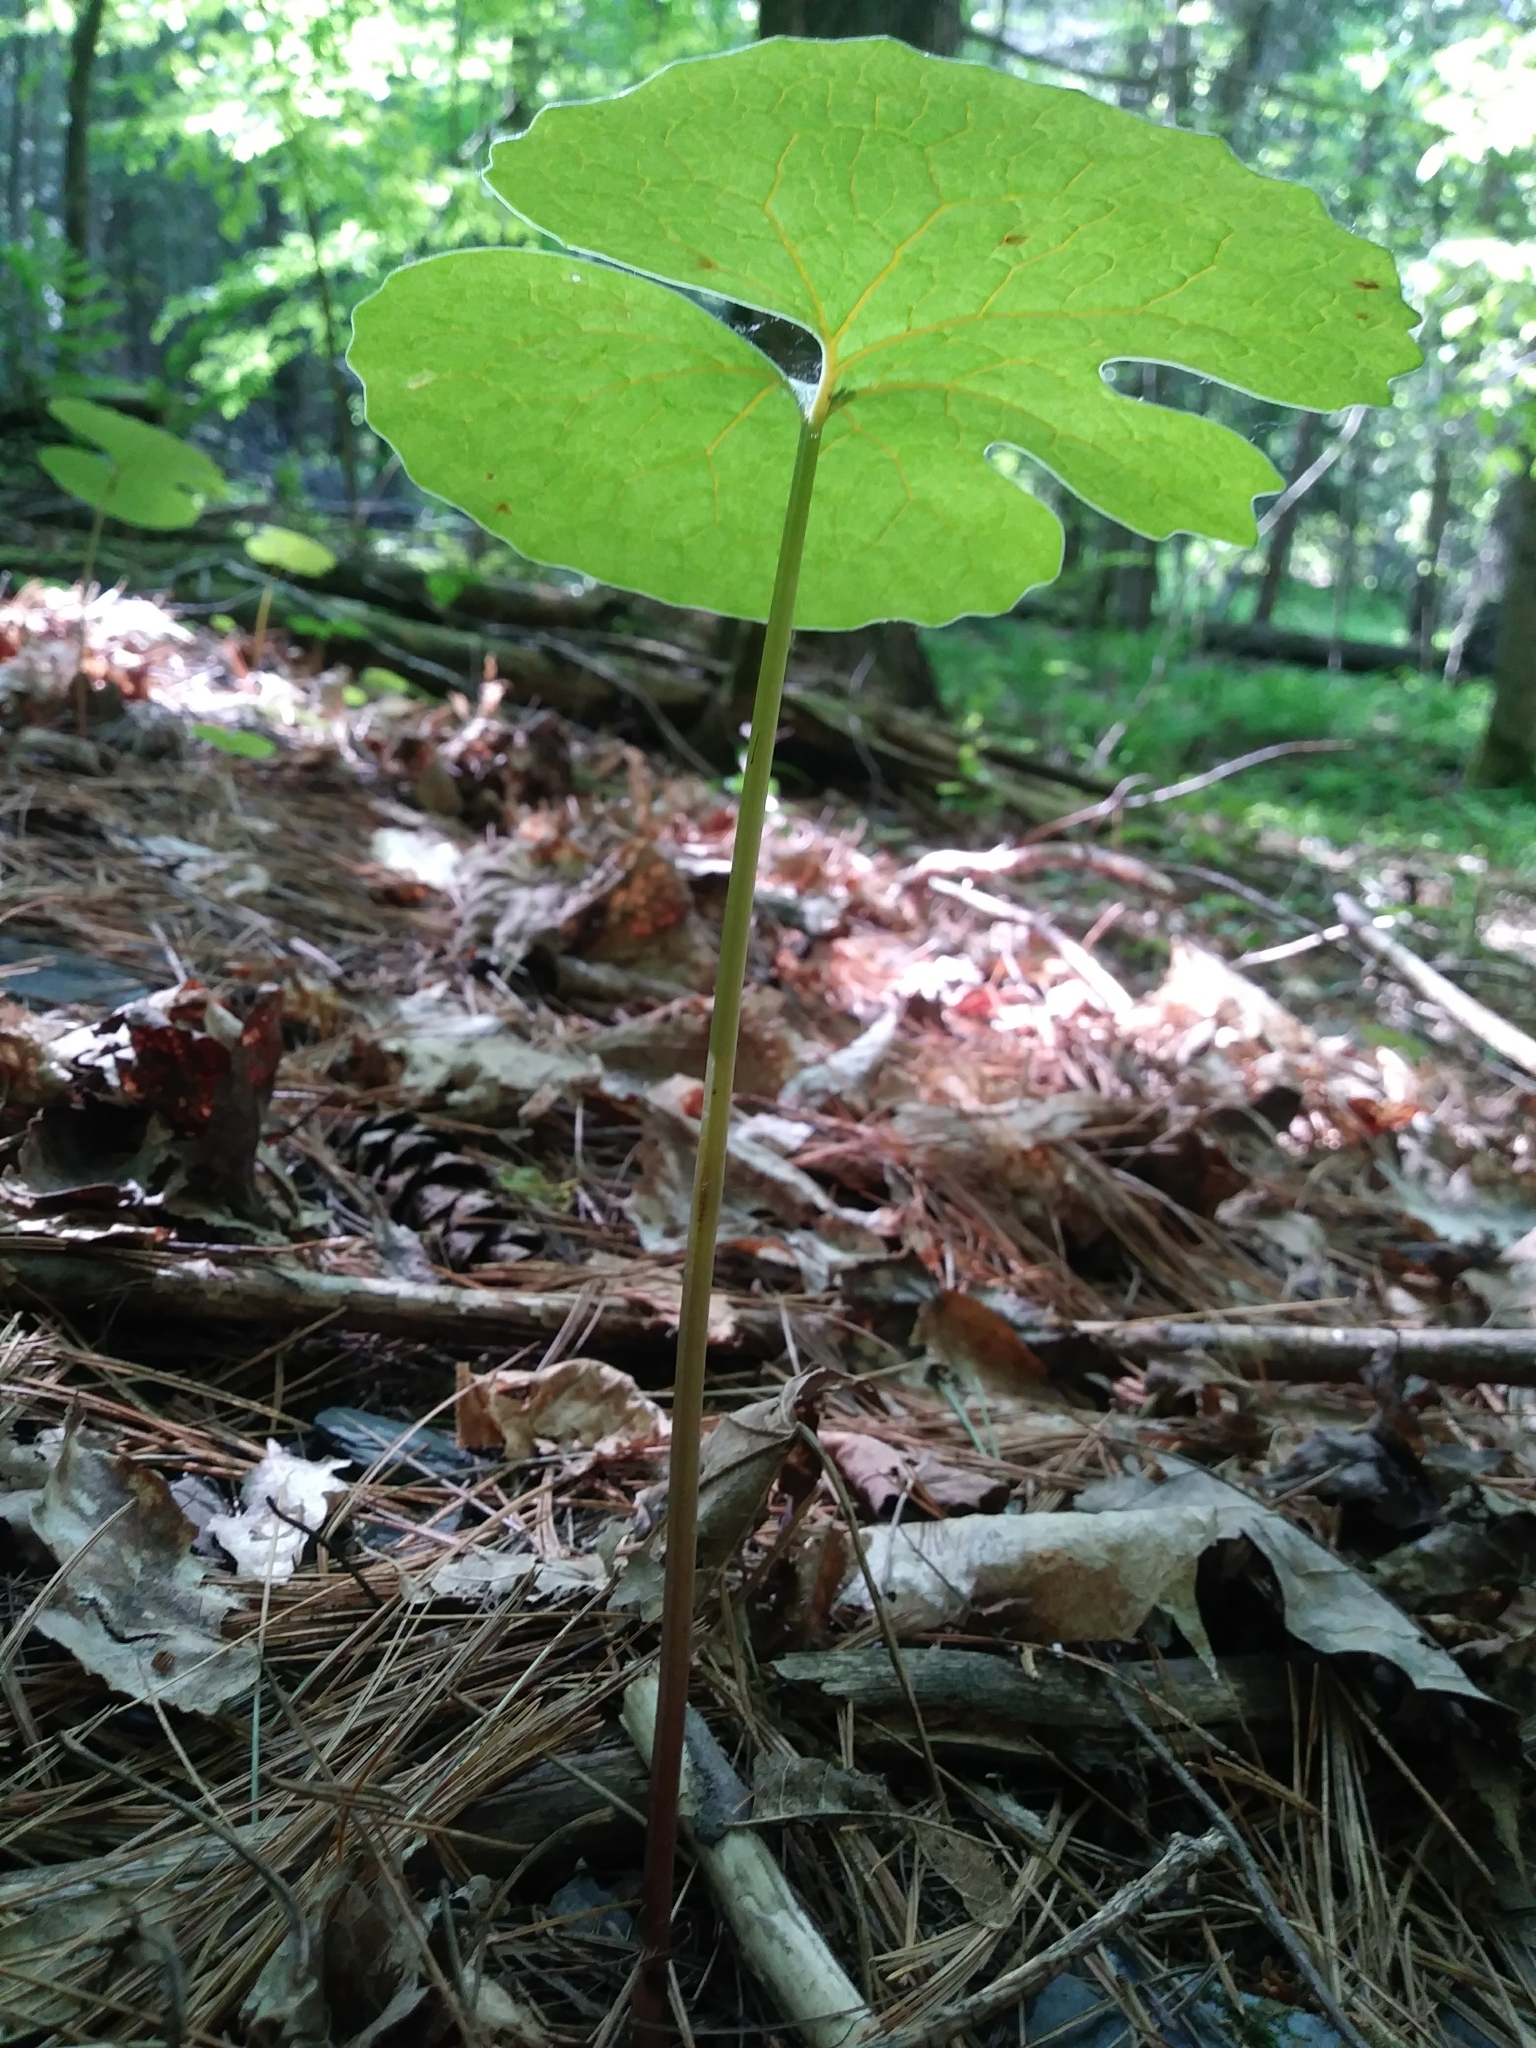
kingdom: Plantae
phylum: Tracheophyta
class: Magnoliopsida
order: Ranunculales
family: Papaveraceae
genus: Sanguinaria
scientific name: Sanguinaria canadensis
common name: Bloodroot
